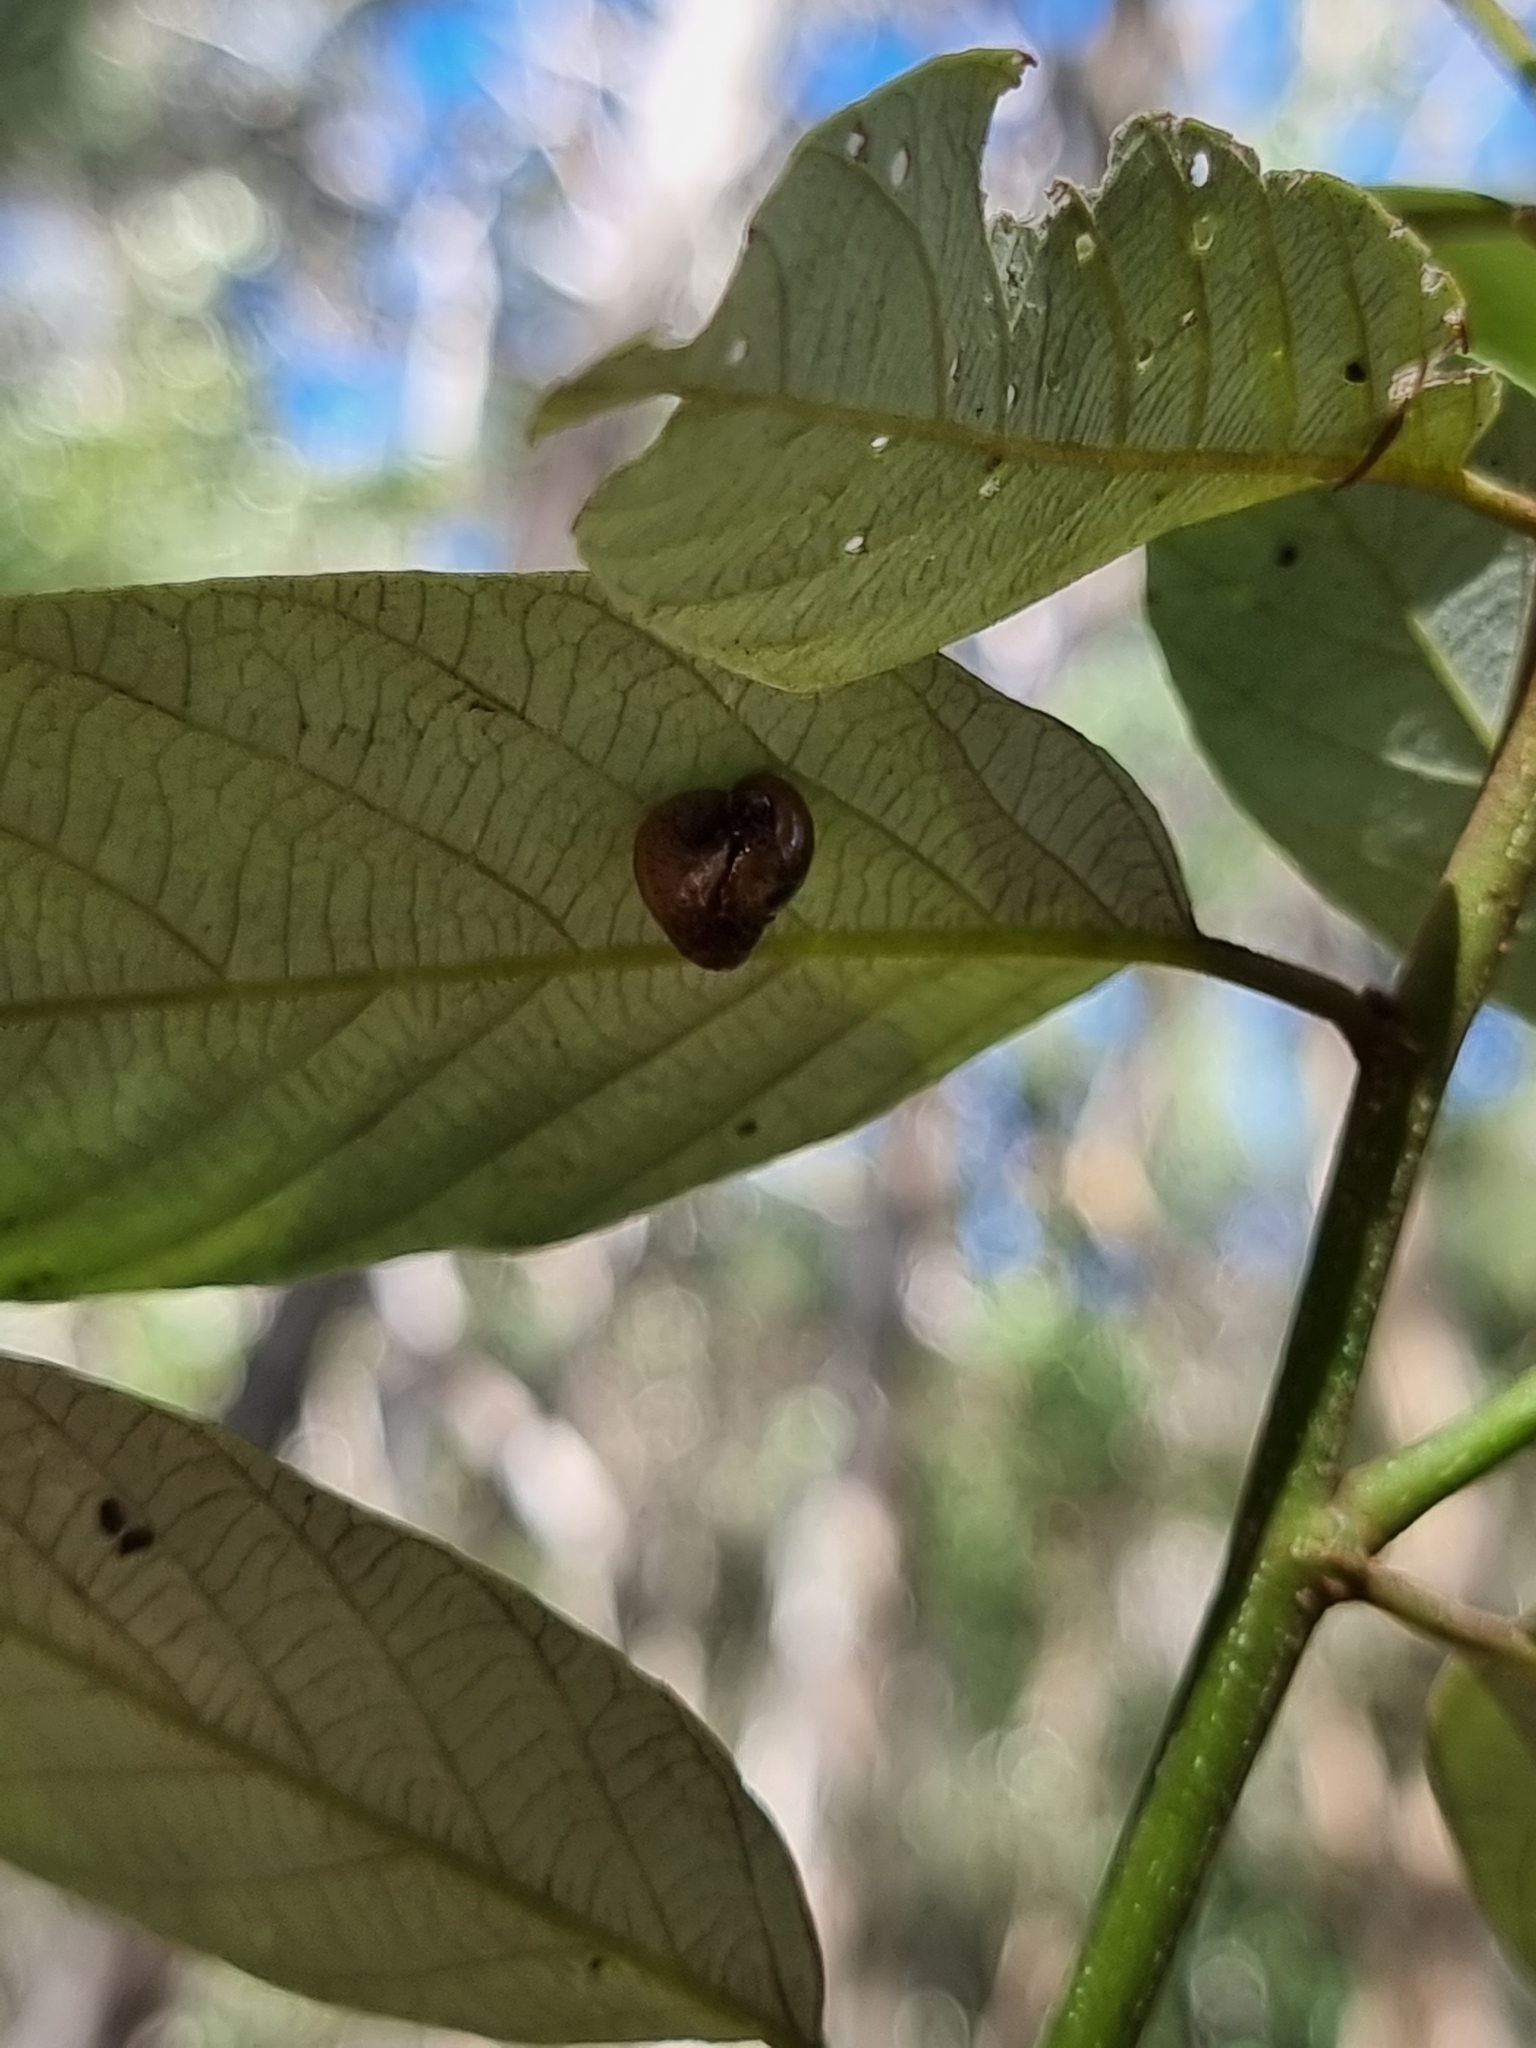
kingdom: Animalia
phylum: Mollusca
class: Gastropoda
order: Stylommatophora
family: Helicarionidae
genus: Ubiquitarion
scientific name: Ubiquitarion iridis
